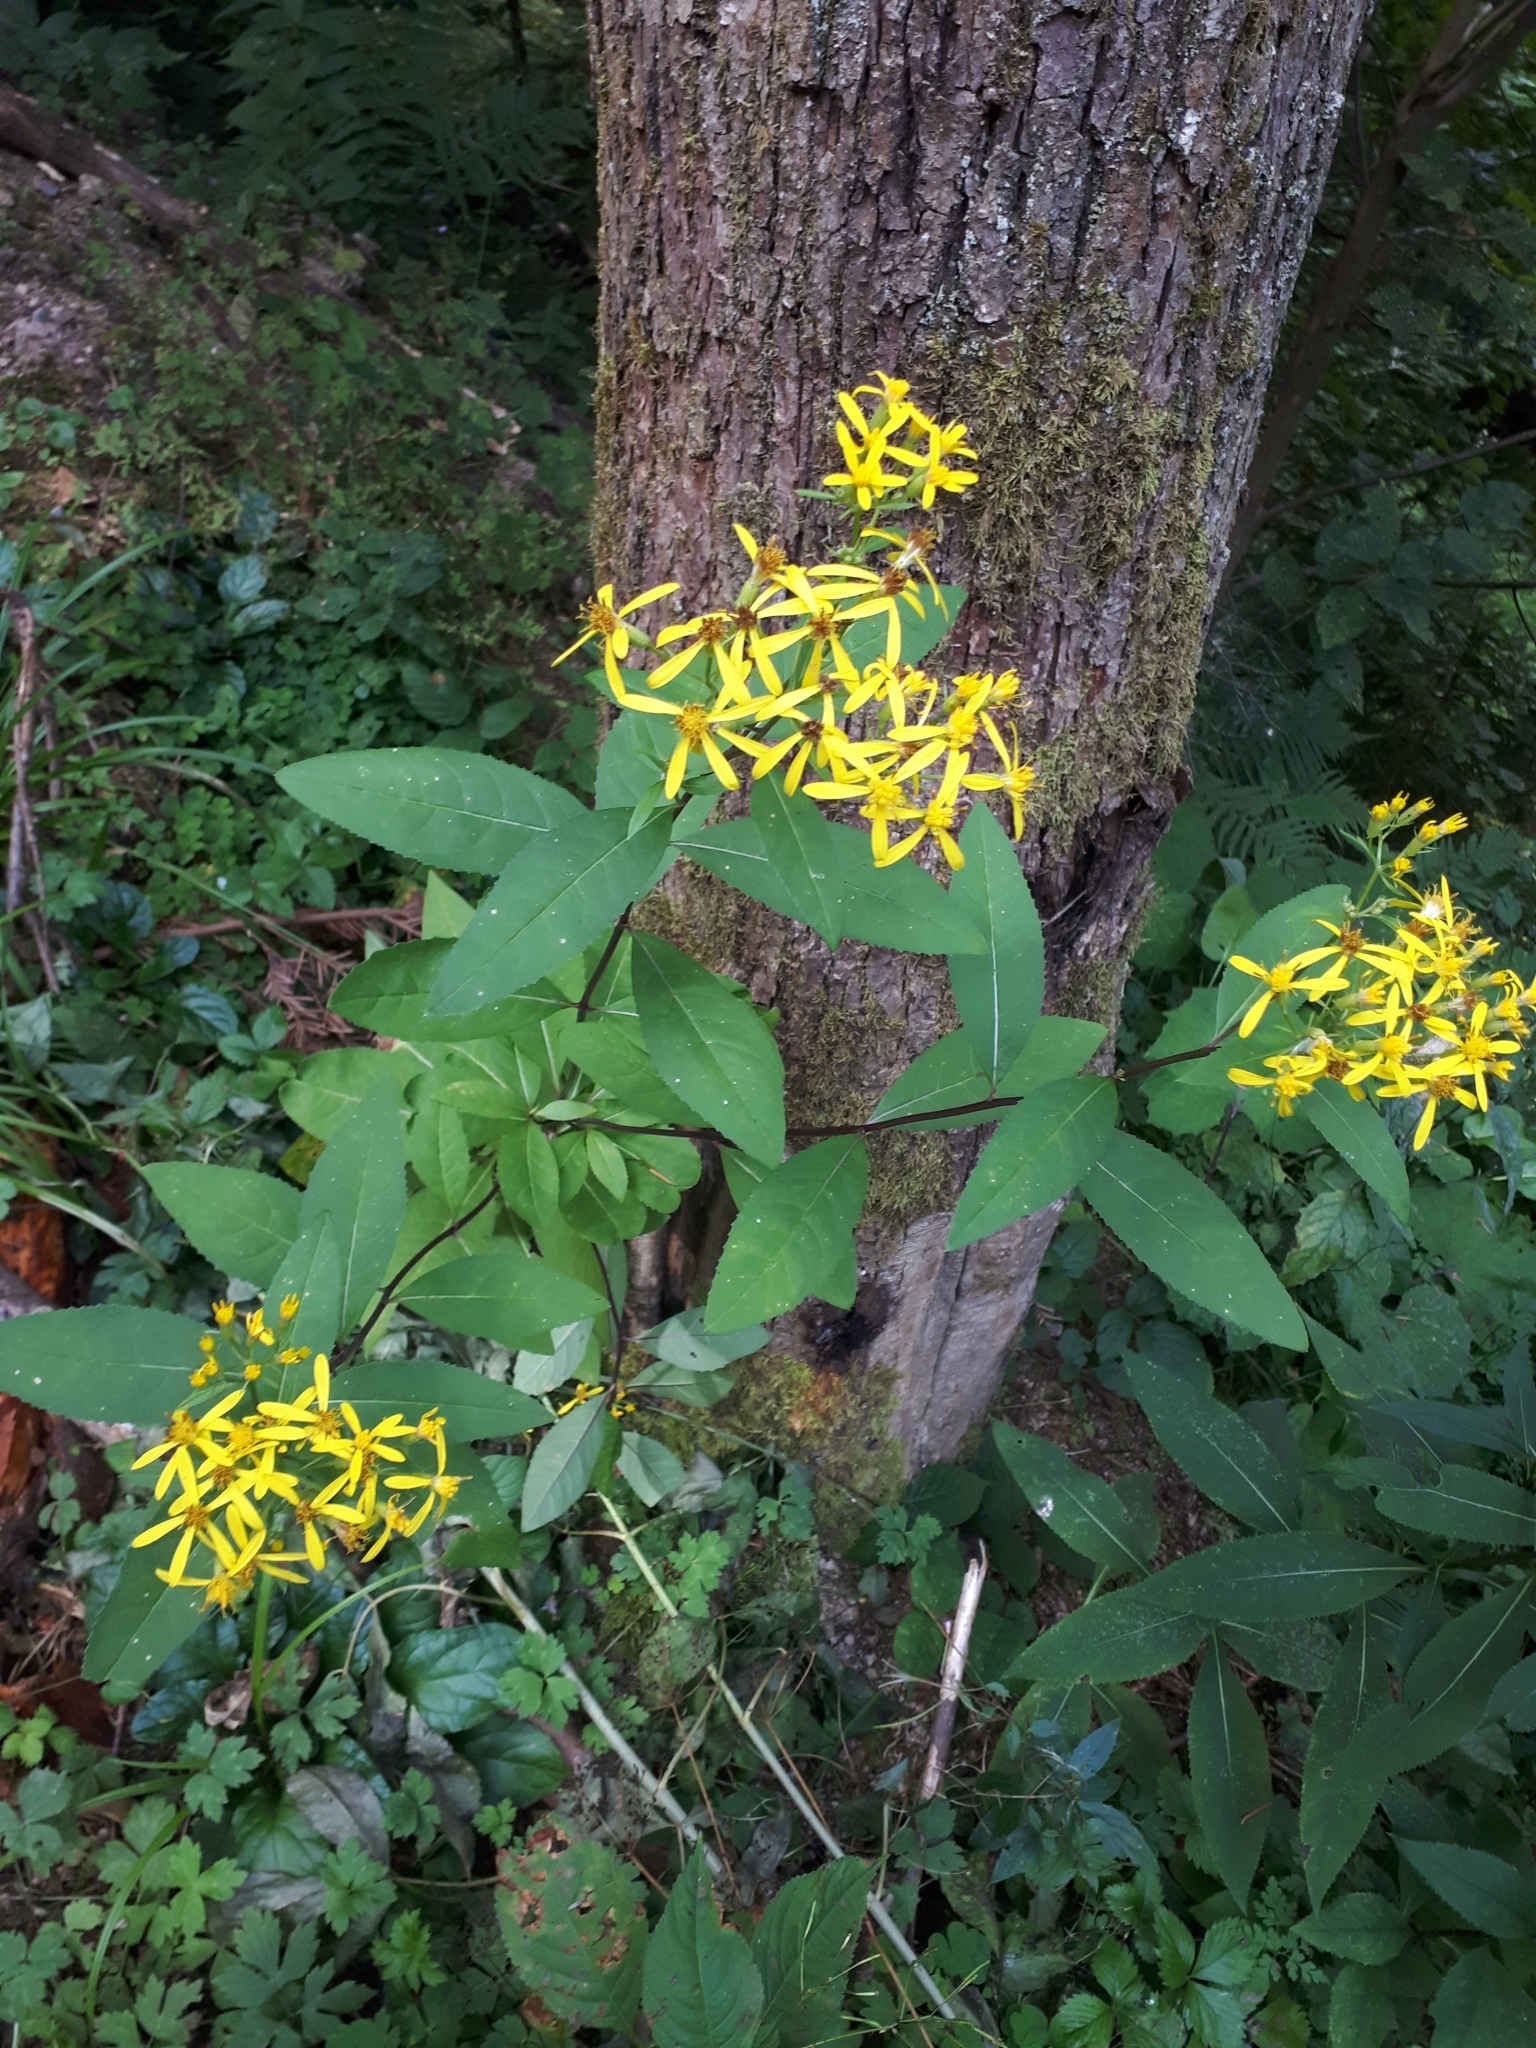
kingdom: Plantae
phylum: Tracheophyta
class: Magnoliopsida
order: Asterales
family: Asteraceae
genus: Senecio
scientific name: Senecio ovatus
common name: Wood ragwort
